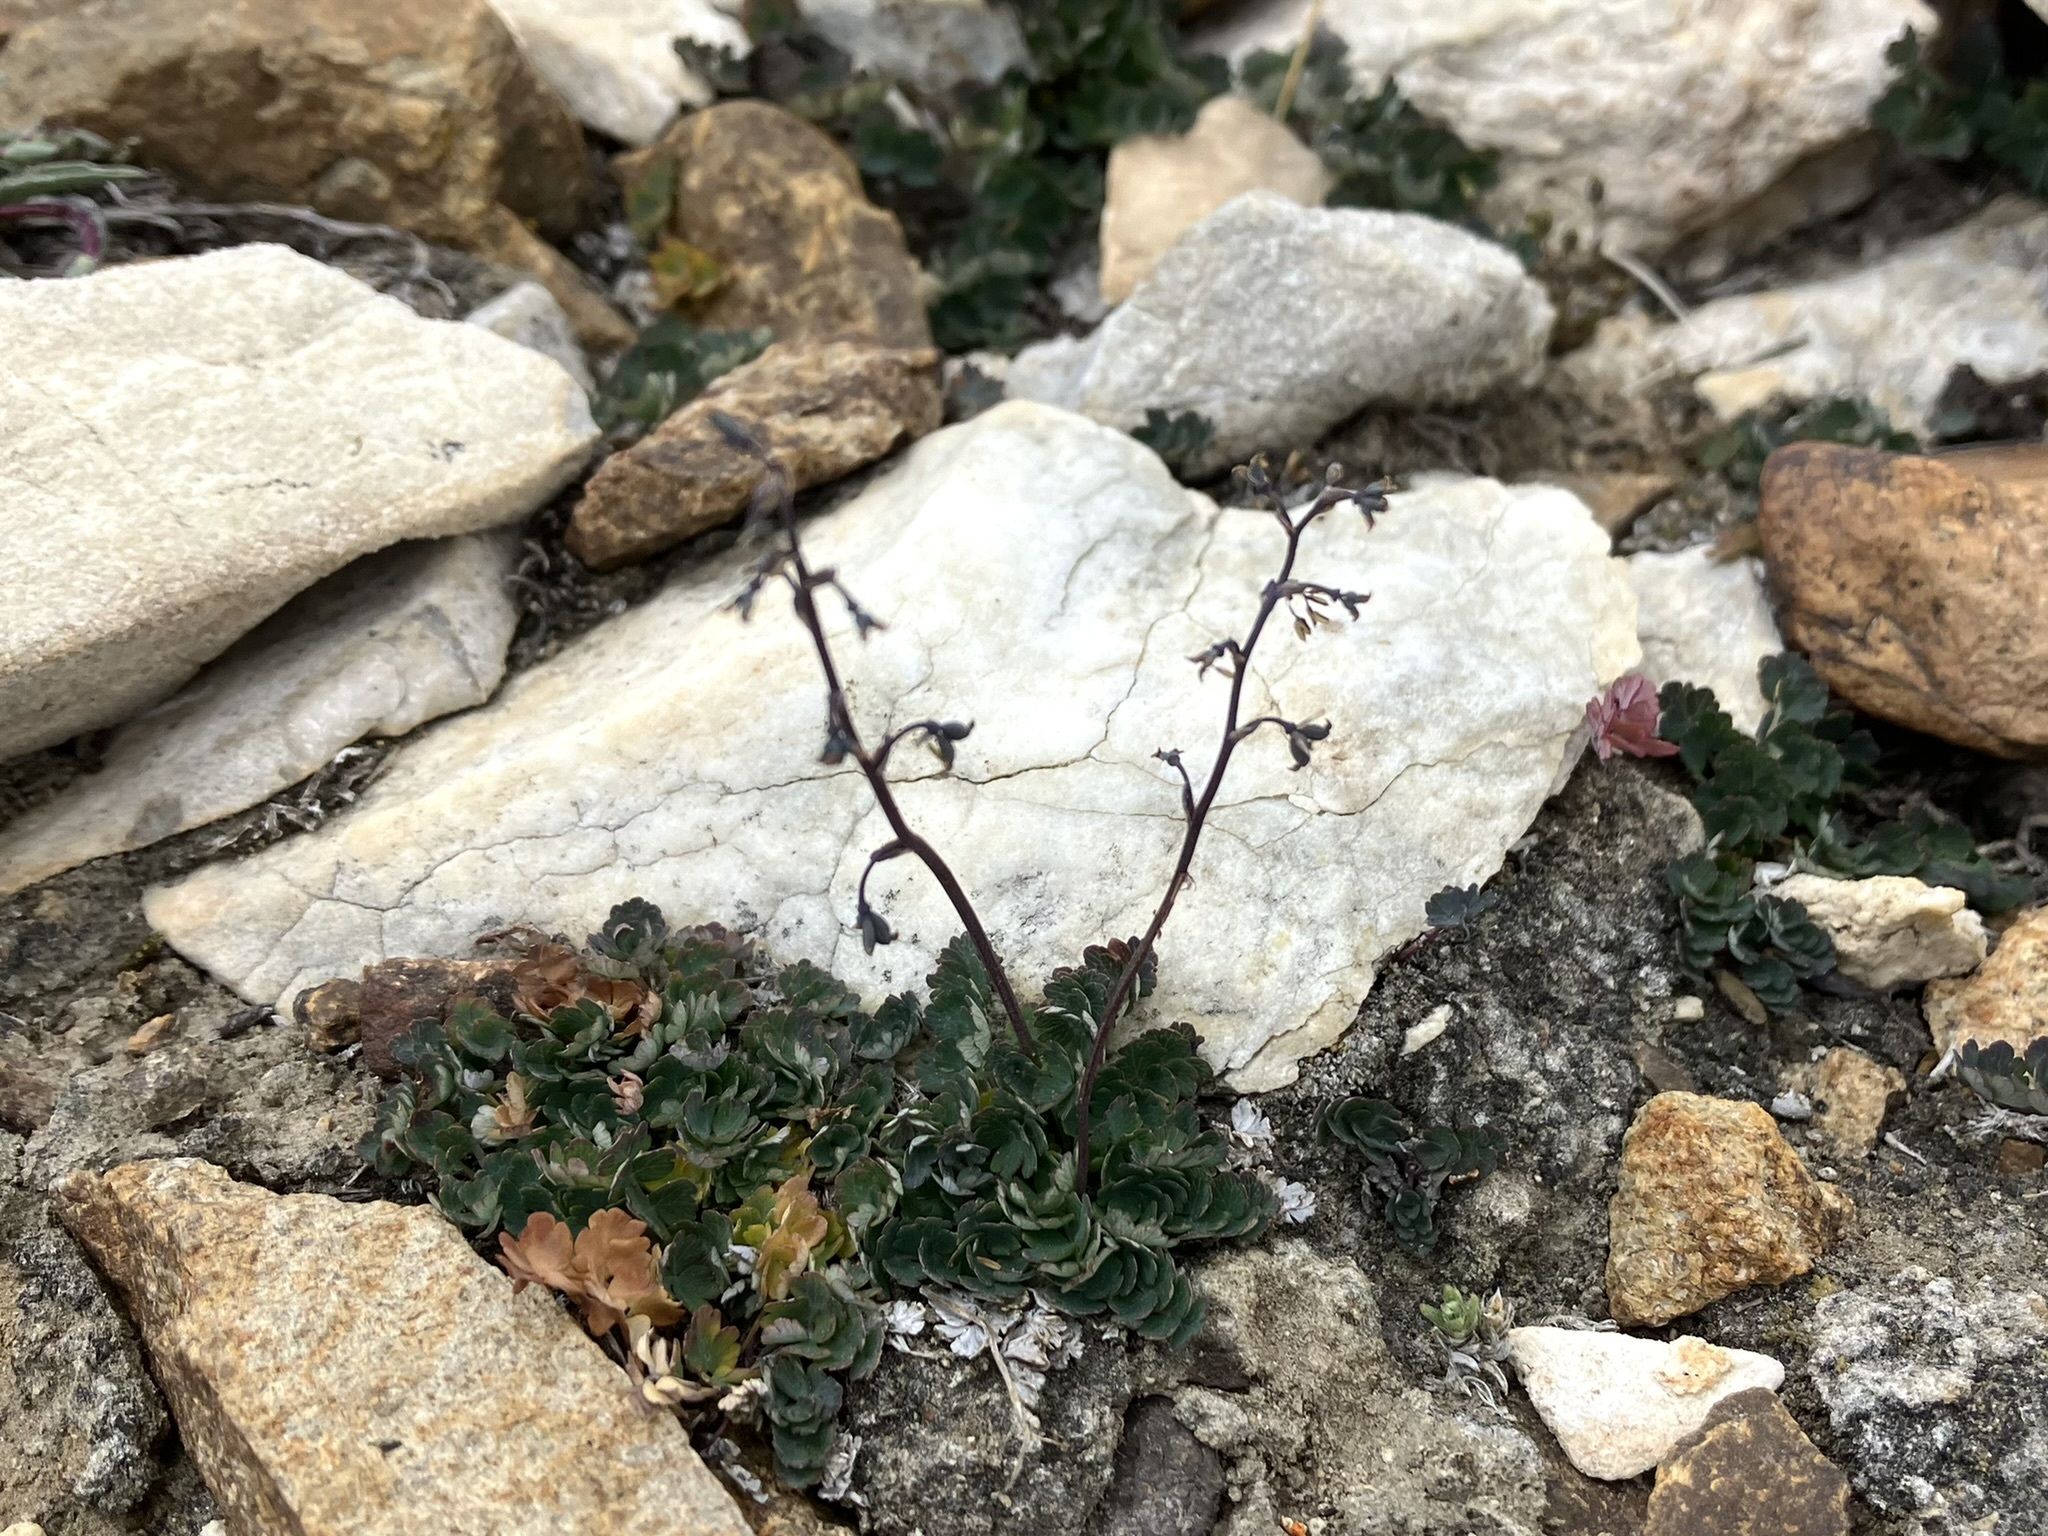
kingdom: Plantae
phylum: Tracheophyta
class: Magnoliopsida
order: Ranunculales
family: Ranunculaceae
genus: Thalictrum
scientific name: Thalictrum alpinum
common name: Alpine meadow-rue
